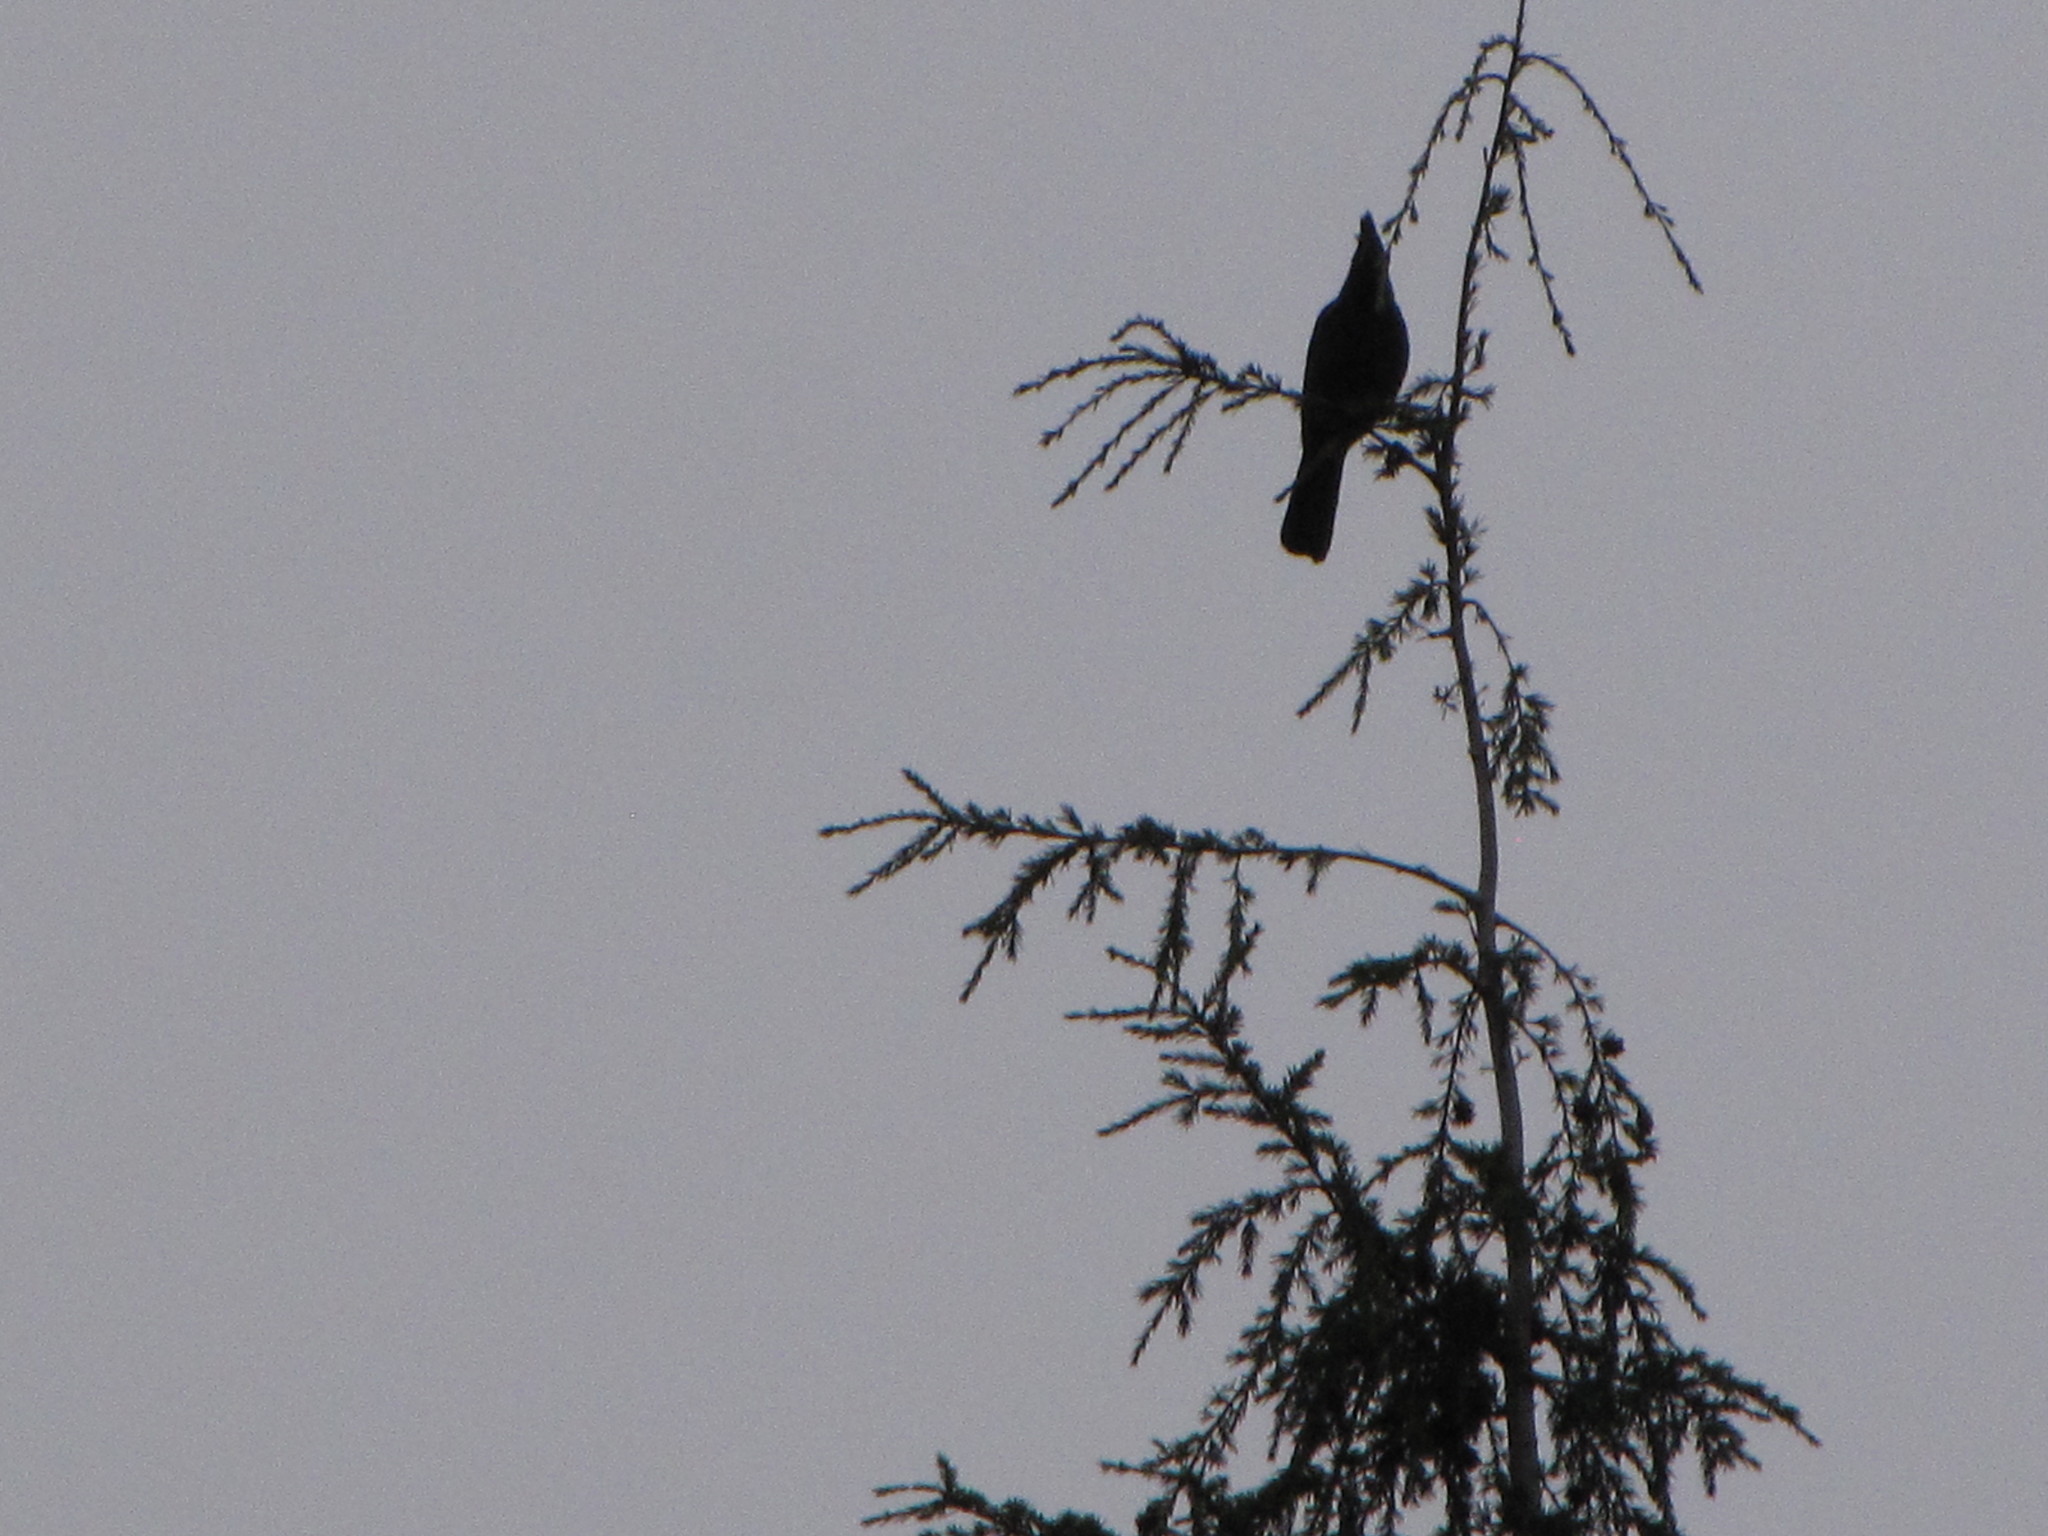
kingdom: Animalia
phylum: Chordata
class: Aves
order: Passeriformes
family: Corvidae
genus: Cyanocitta
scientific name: Cyanocitta stelleri
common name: Steller's jay
